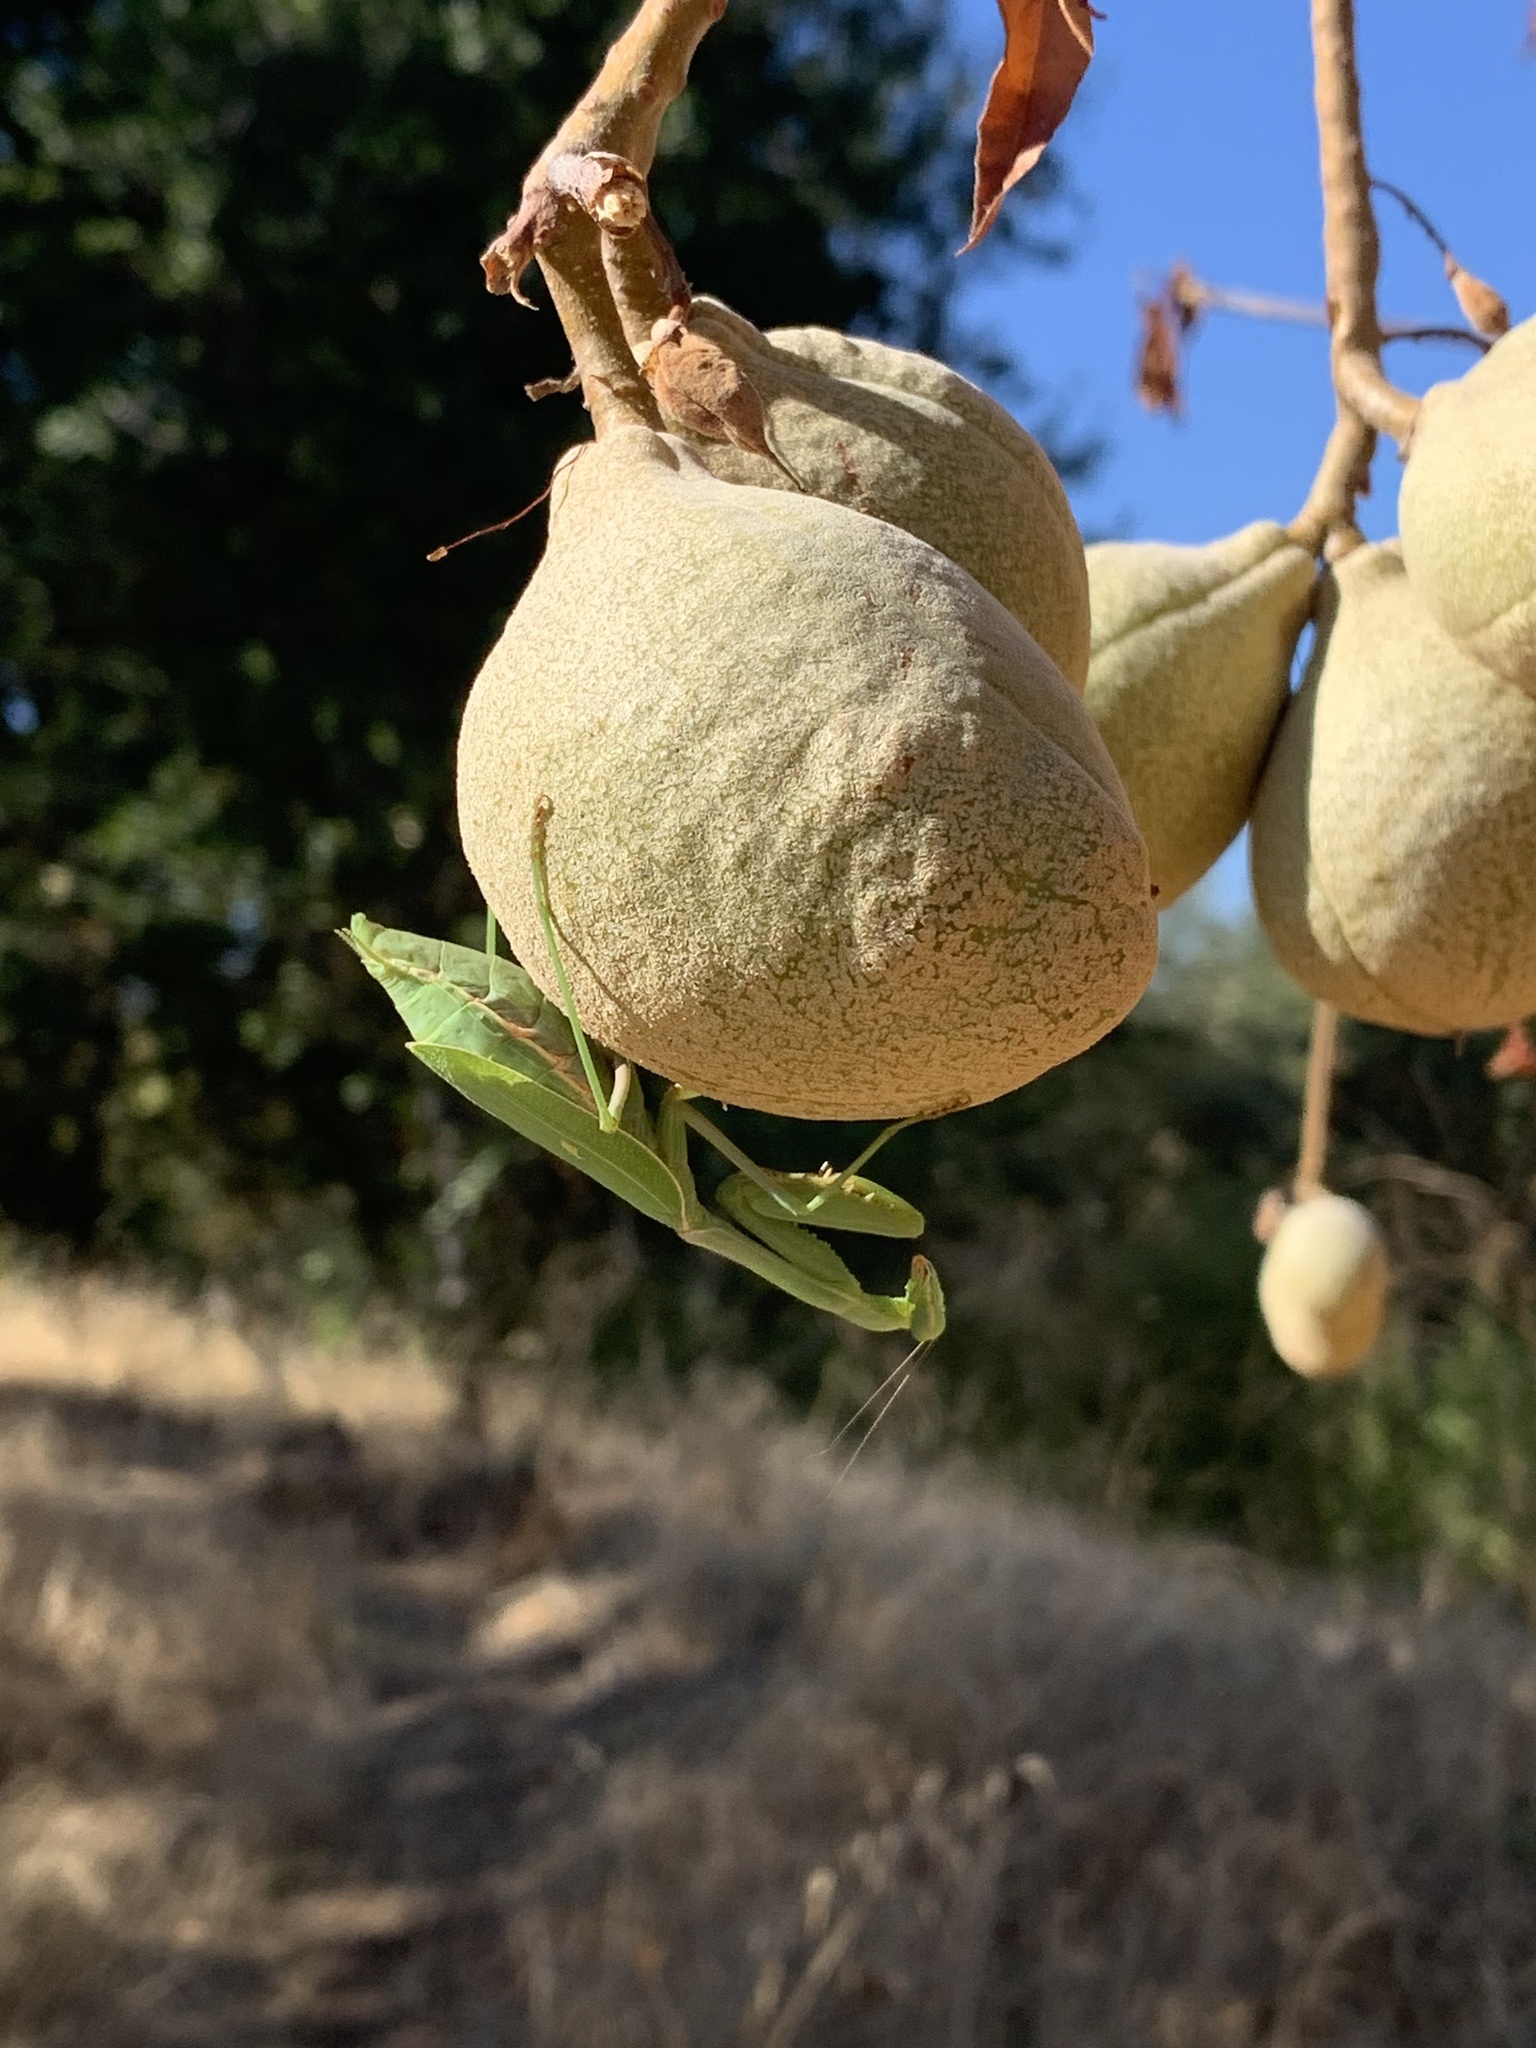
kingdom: Animalia
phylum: Arthropoda
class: Insecta
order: Mantodea
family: Mantidae
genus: Stagmomantis
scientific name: Stagmomantis limbata
